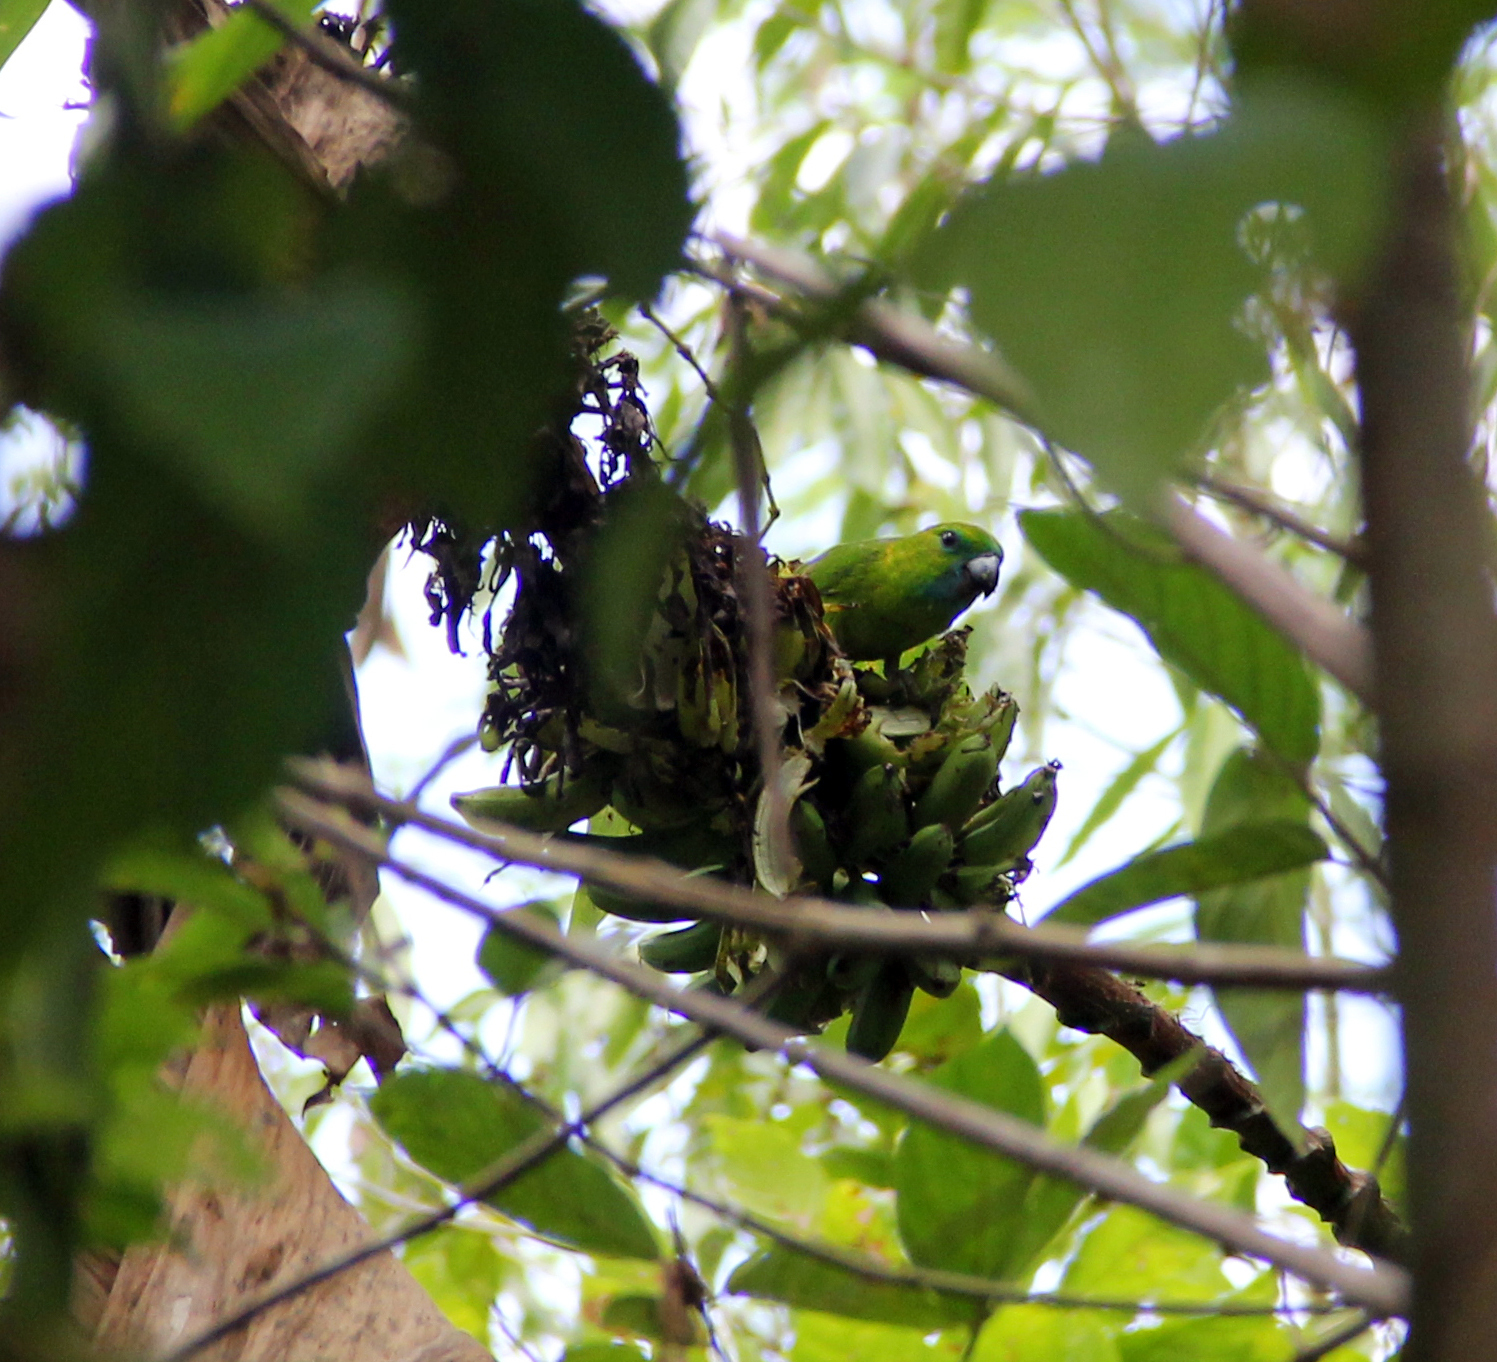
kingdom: Animalia
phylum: Chordata
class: Aves
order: Psittaciformes
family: Psittacidae
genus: Bolbopsittacus
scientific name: Bolbopsittacus lunulatus
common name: Guaiabero
